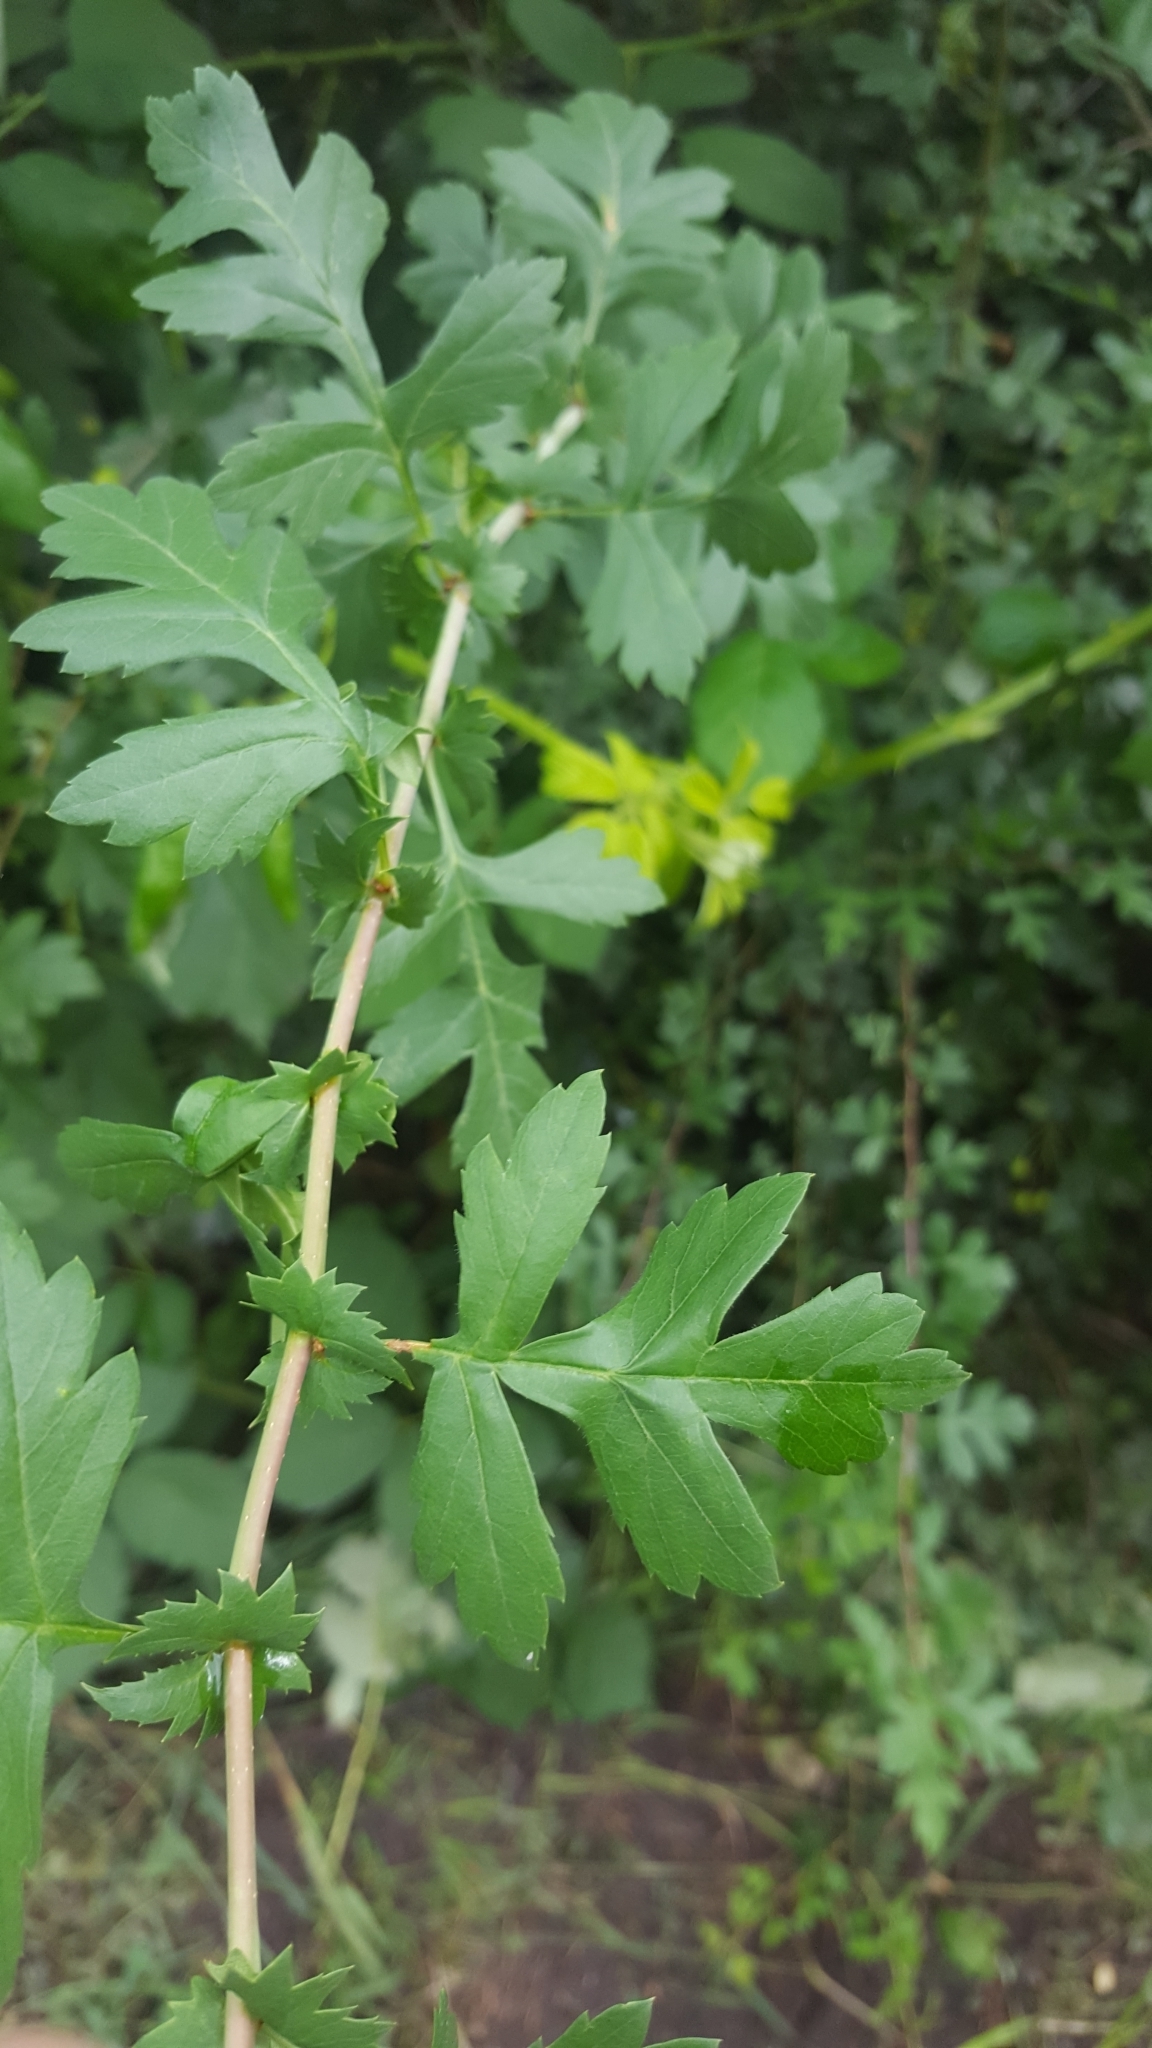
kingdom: Plantae
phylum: Tracheophyta
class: Magnoliopsida
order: Rosales
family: Rosaceae
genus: Crataegus
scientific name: Crataegus monogyna
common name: Hawthorn
